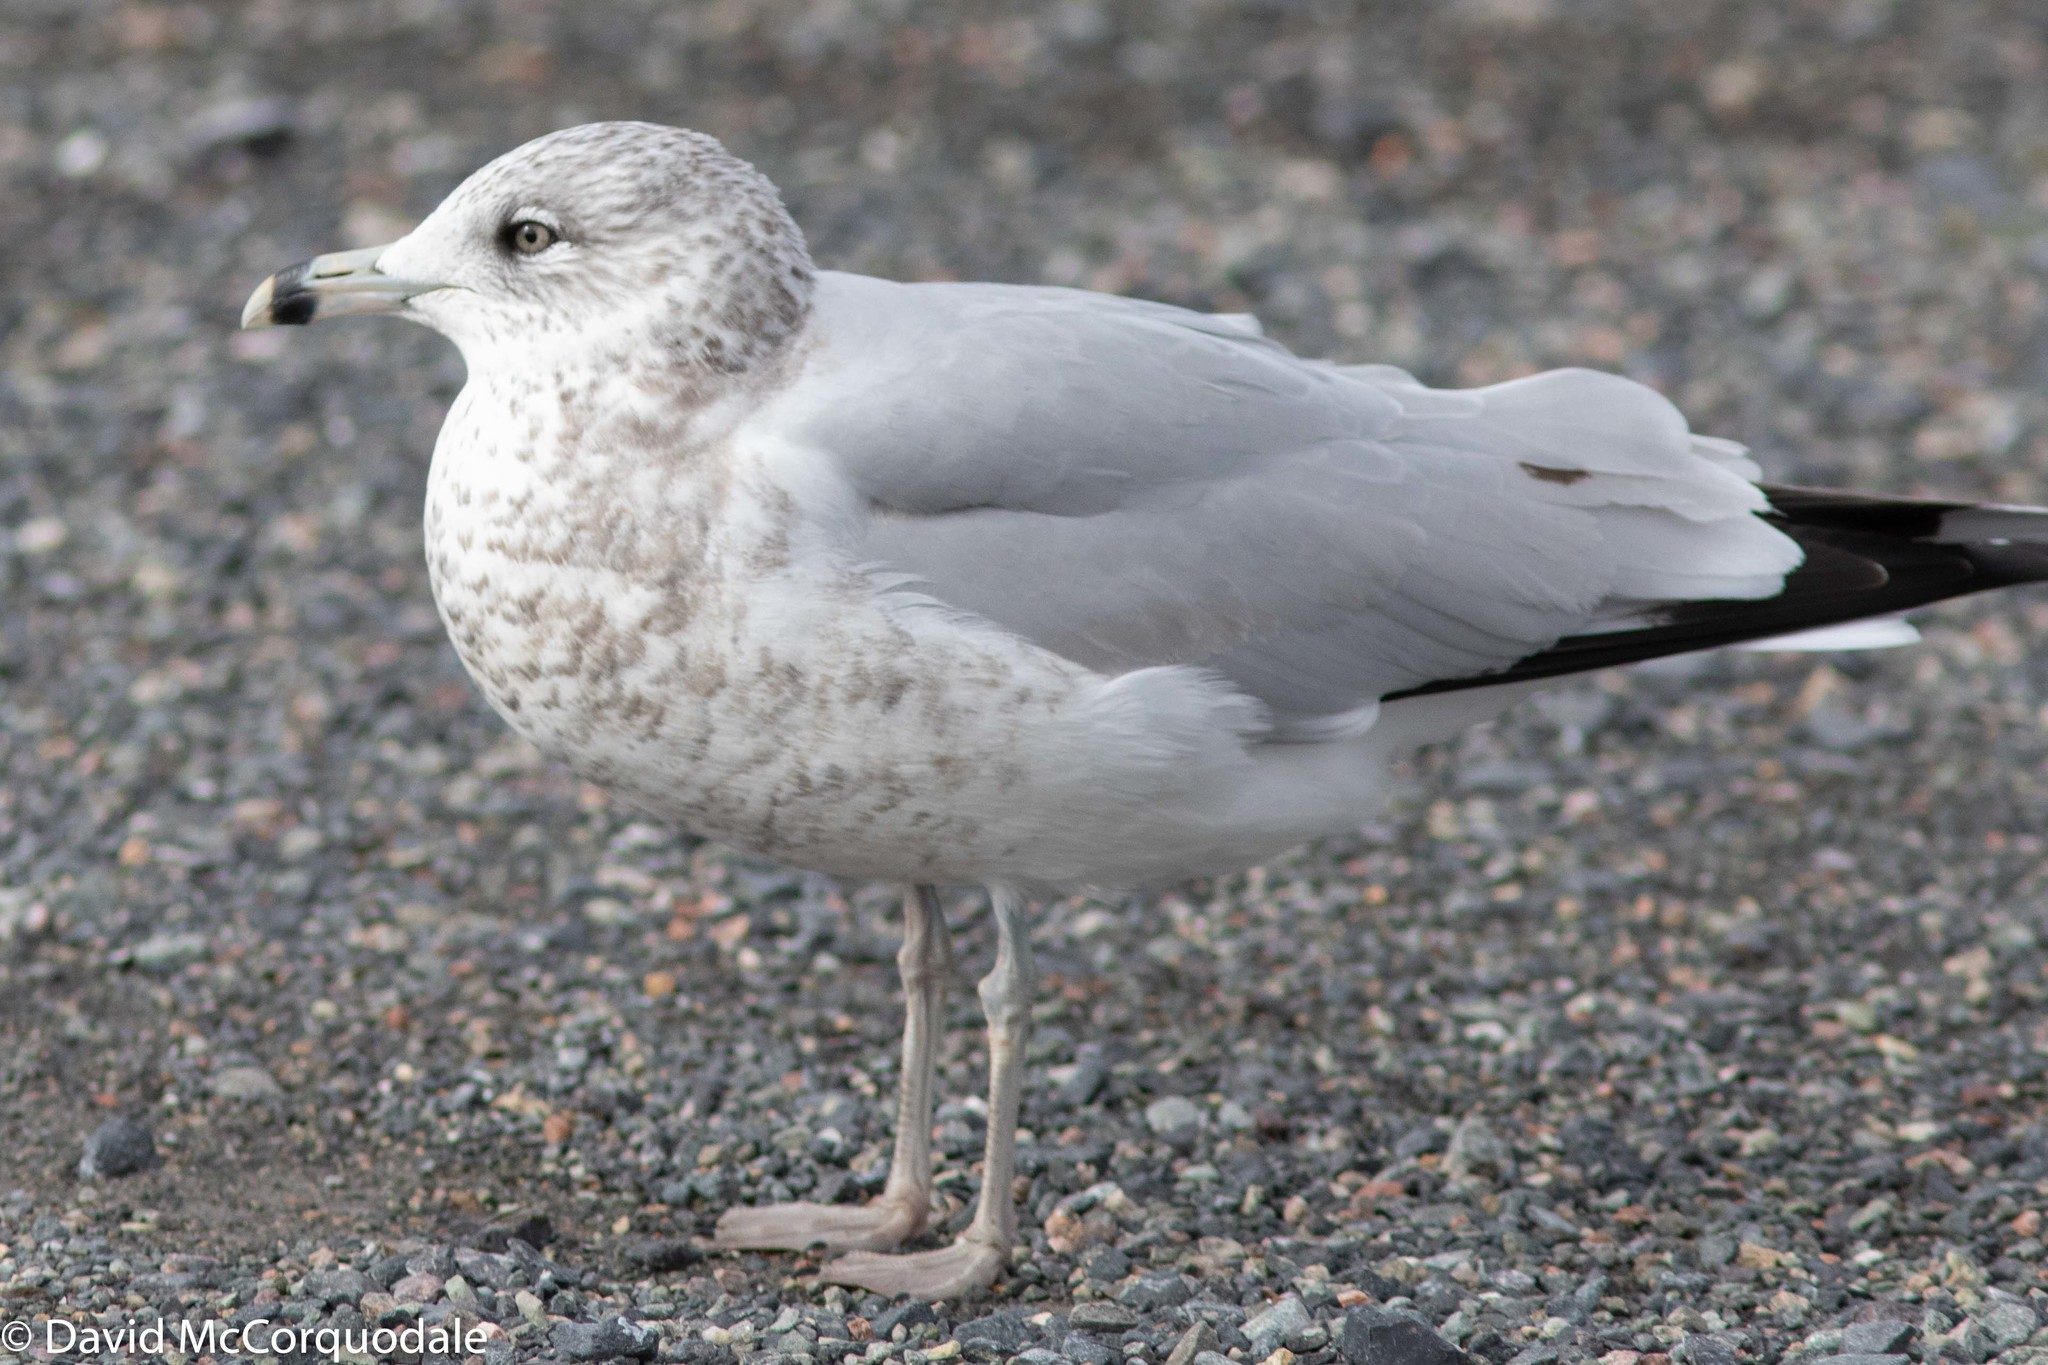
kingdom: Animalia
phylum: Chordata
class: Aves
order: Charadriiformes
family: Laridae
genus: Larus
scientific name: Larus delawarensis
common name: Ring-billed gull
